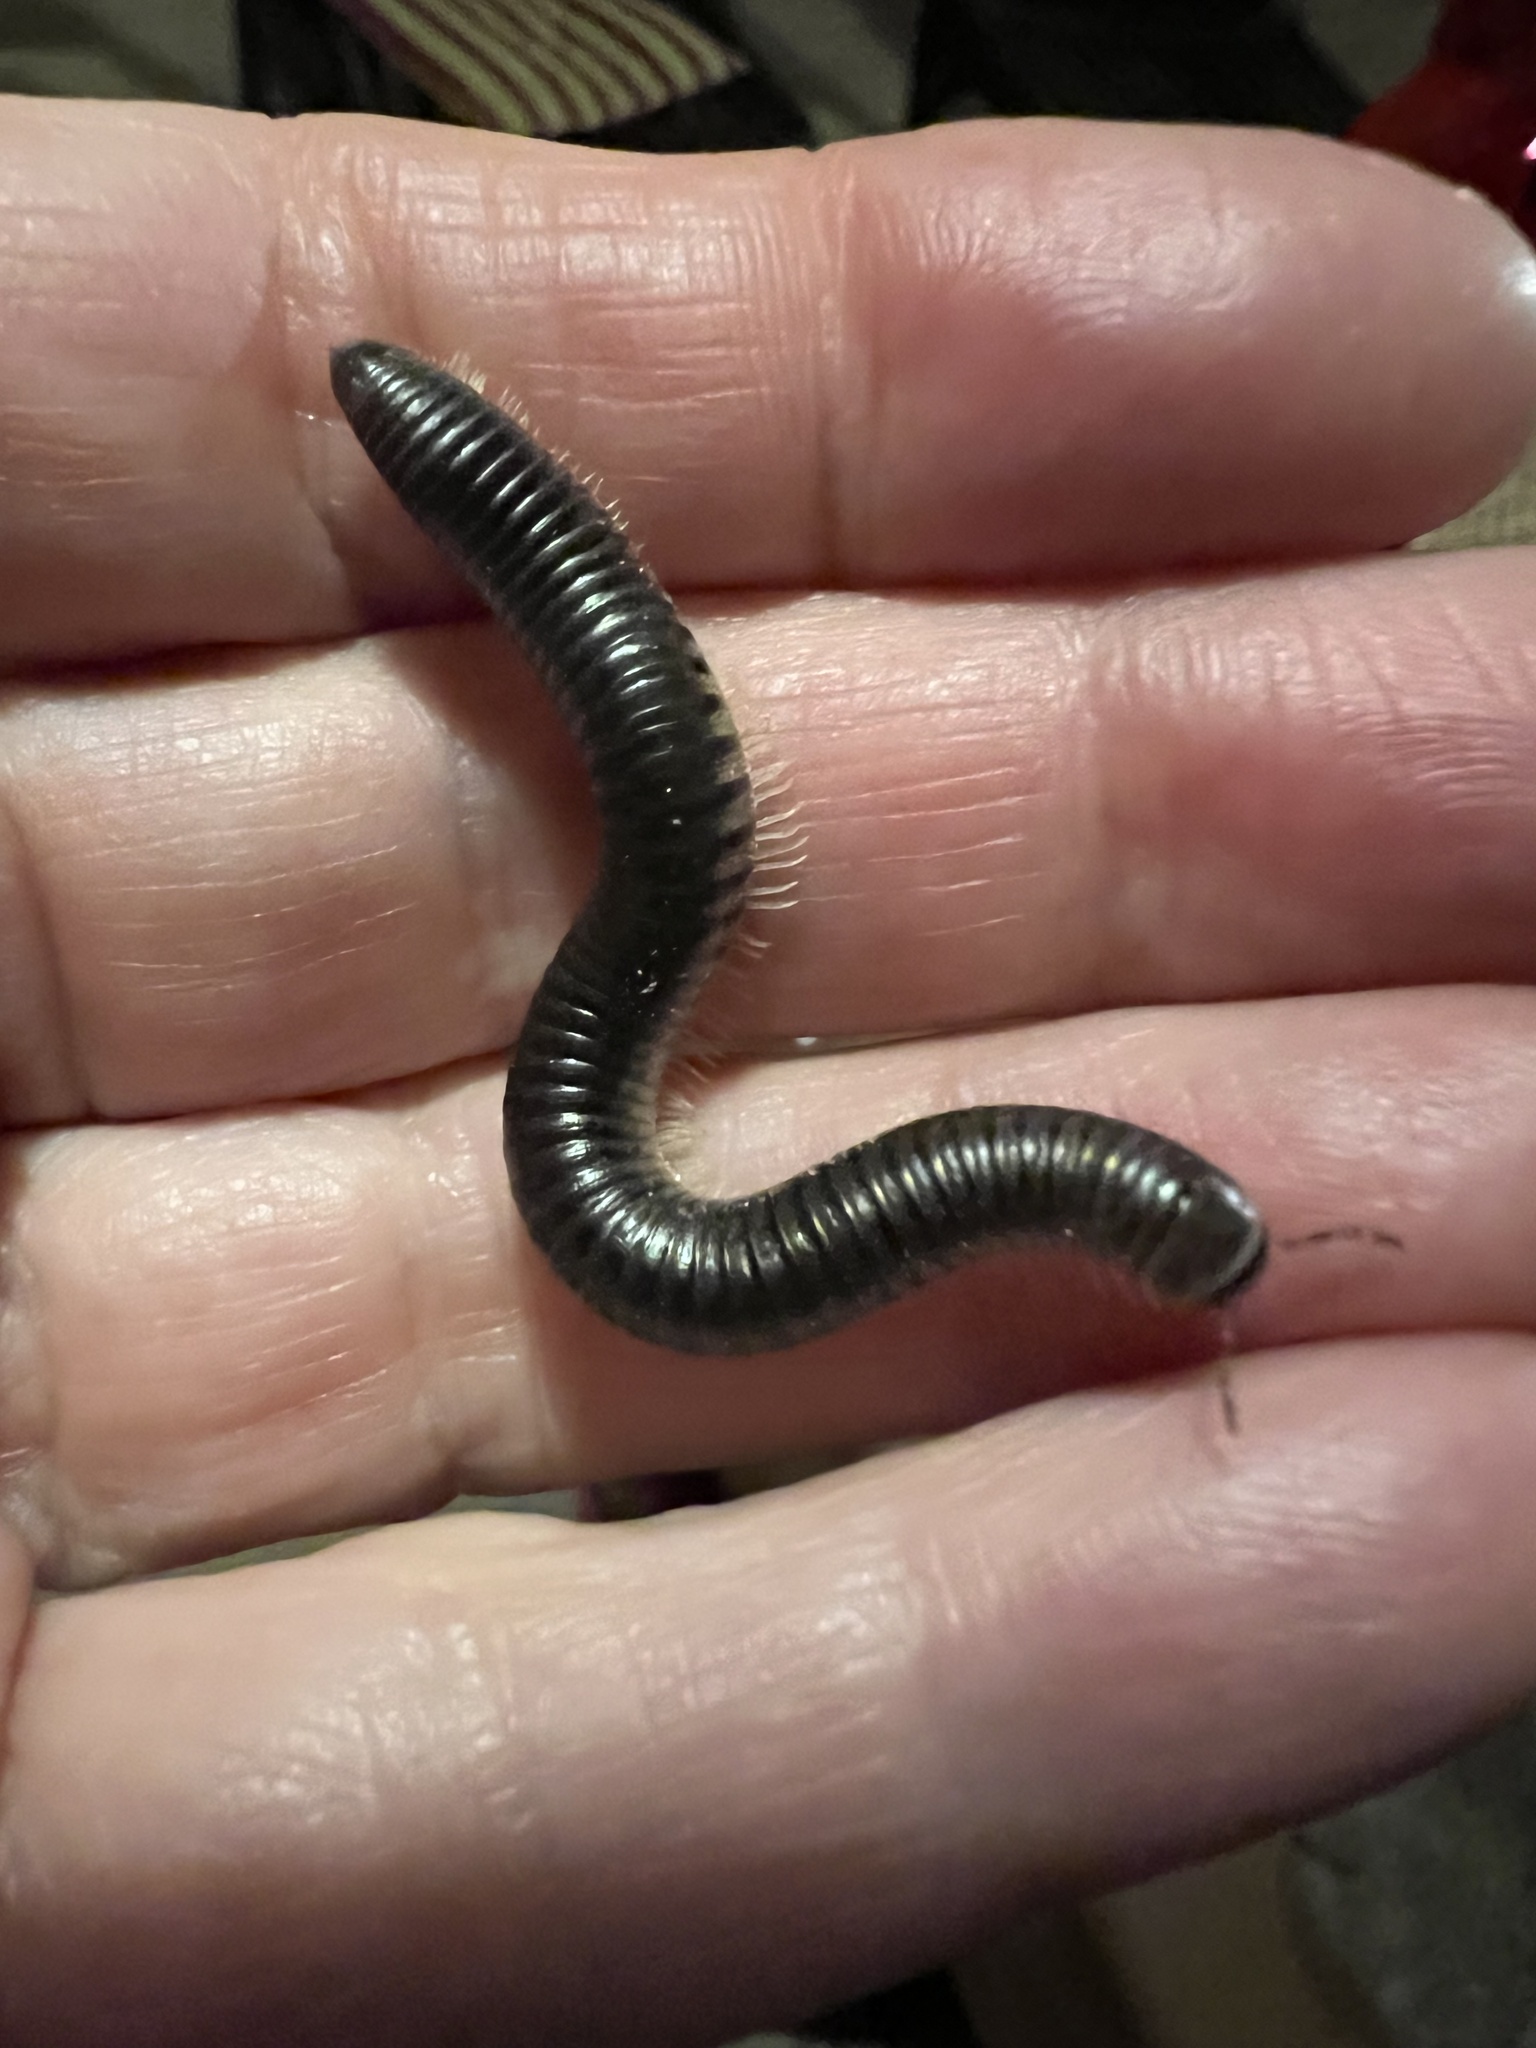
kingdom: Animalia
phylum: Arthropoda
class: Diplopoda
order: Julida
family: Julidae
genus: Pachyiulus
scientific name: Pachyiulus flavipes
